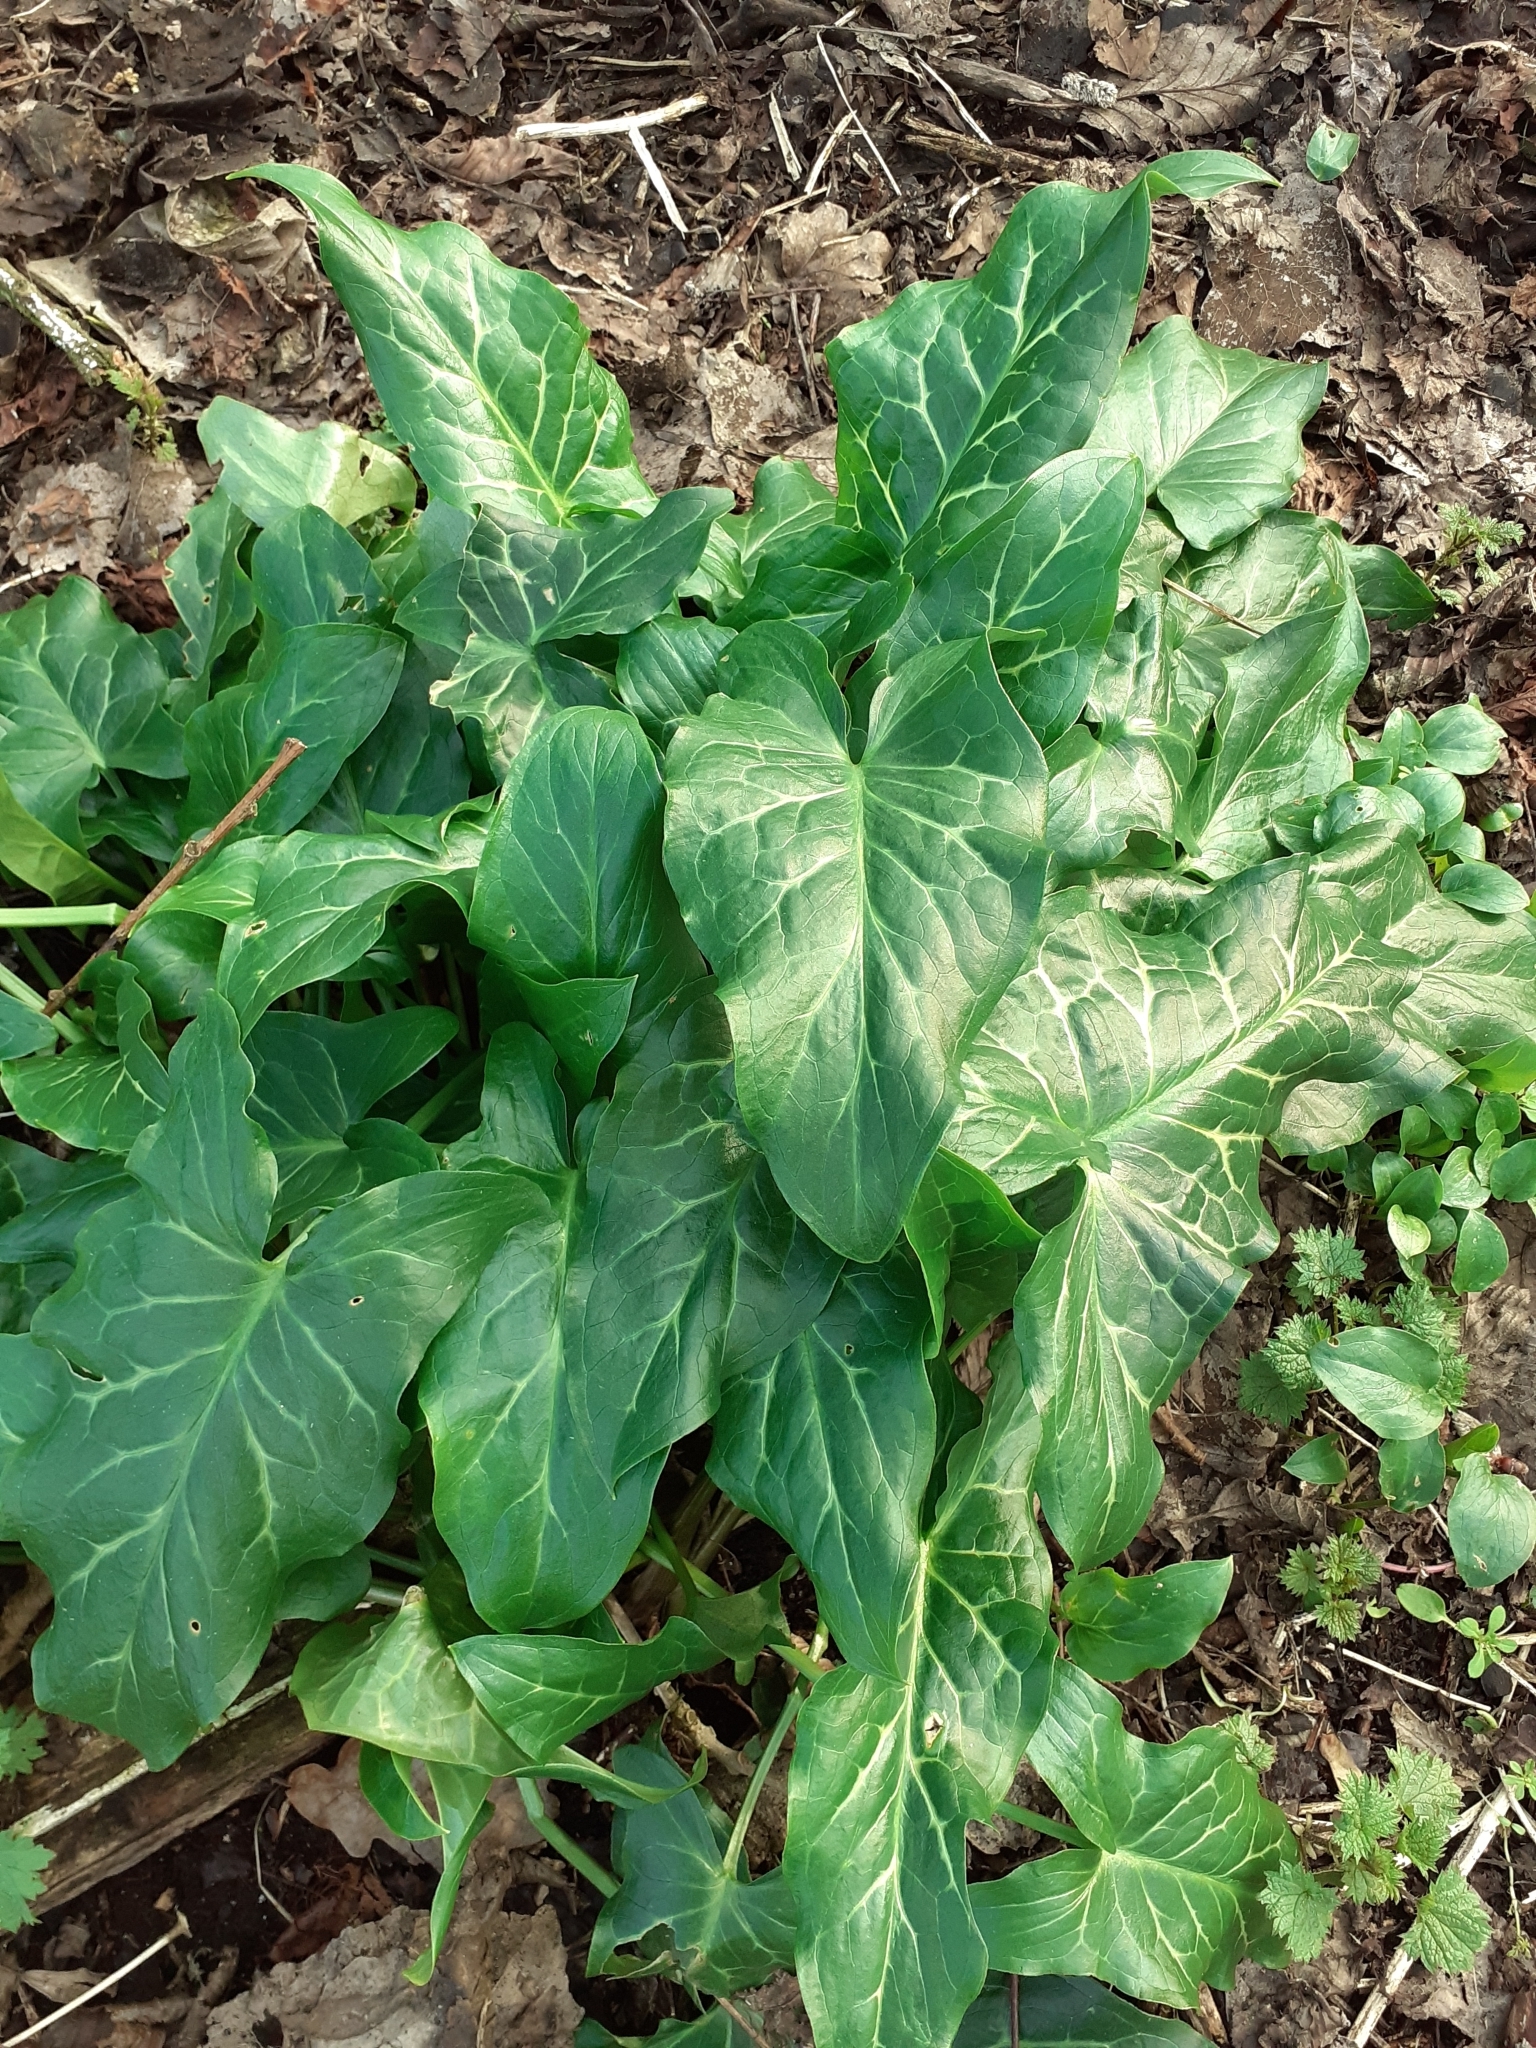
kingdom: Plantae
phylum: Tracheophyta
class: Liliopsida
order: Alismatales
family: Araceae
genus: Arum
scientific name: Arum italicum
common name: Italian lords-and-ladies
